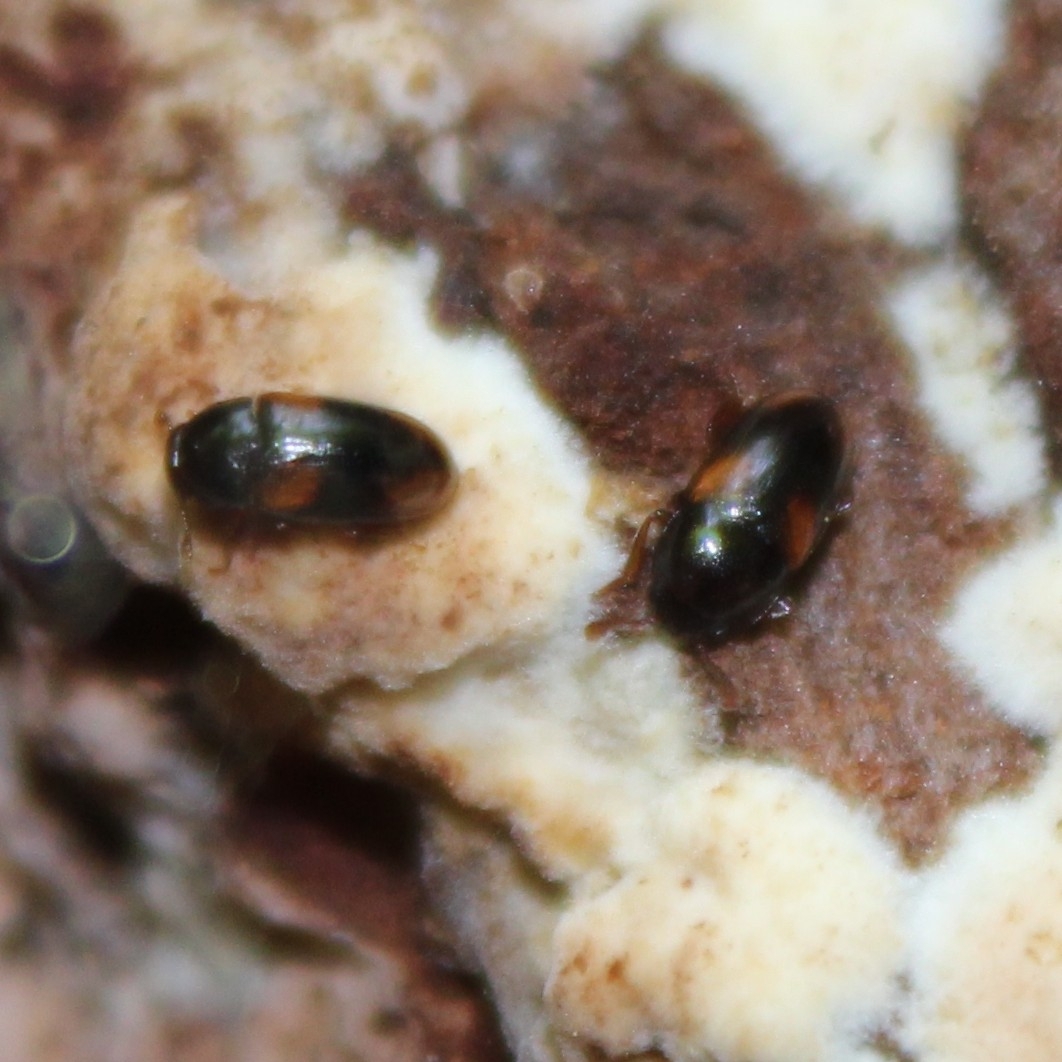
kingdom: Animalia
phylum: Arthropoda
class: Insecta
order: Coleoptera
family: Erotylidae
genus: Dacne
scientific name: Dacne quadrimaculata
